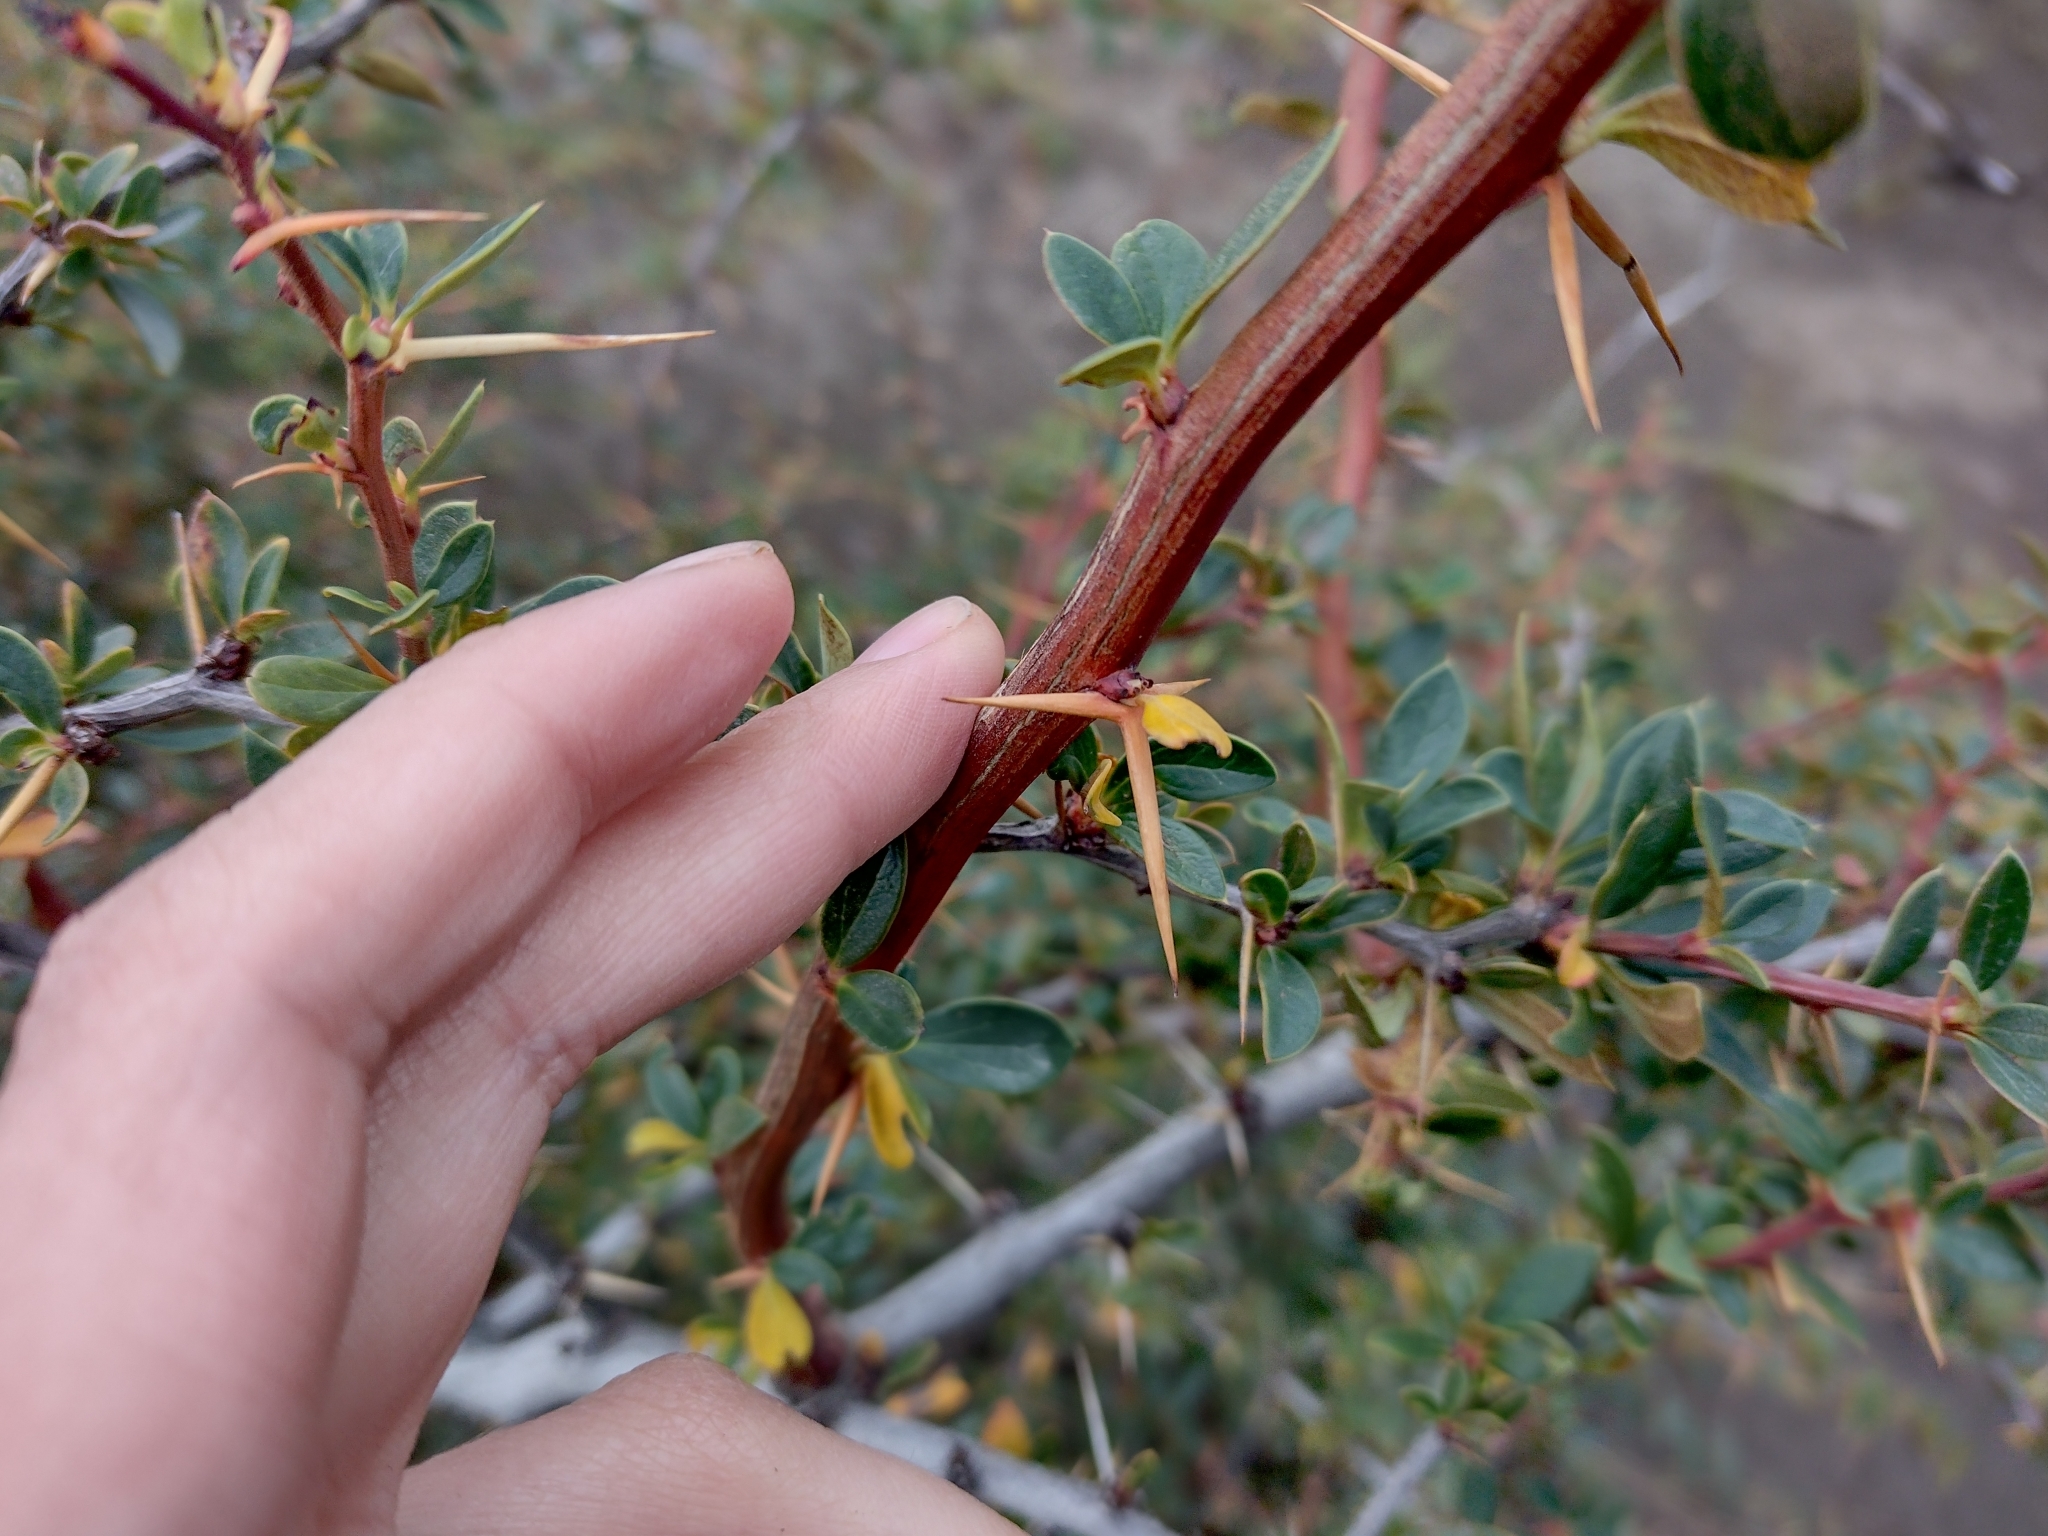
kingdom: Plantae
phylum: Tracheophyta
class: Magnoliopsida
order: Ranunculales
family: Berberidaceae
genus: Berberis
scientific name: Berberis microphylla
